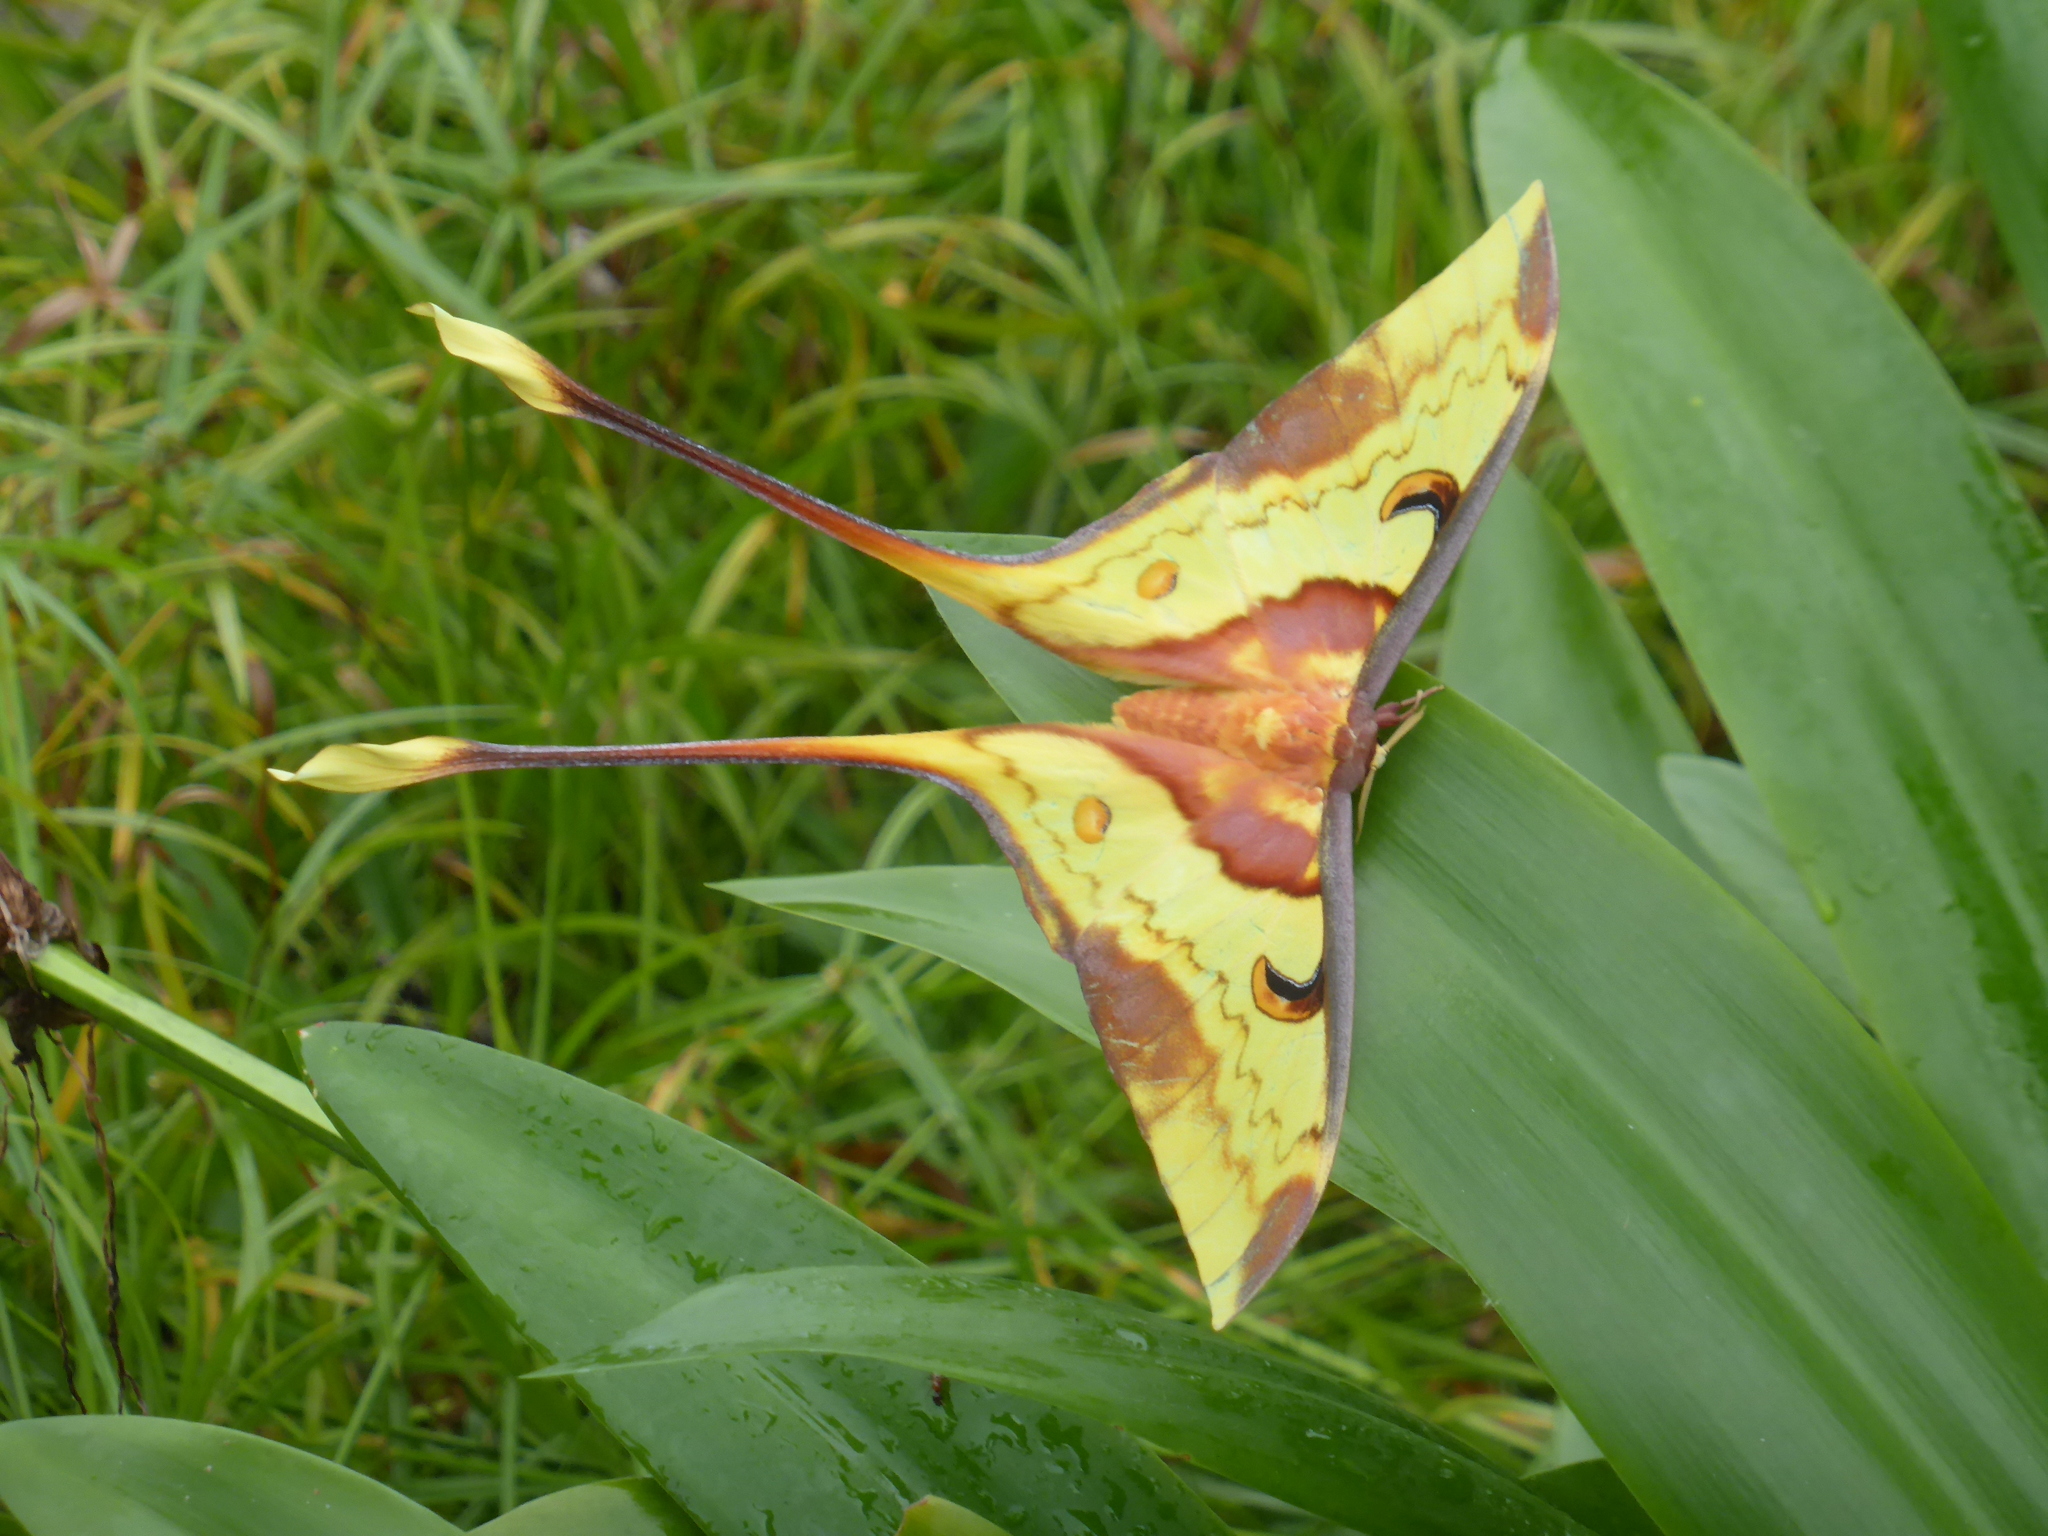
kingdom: Animalia
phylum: Arthropoda
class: Insecta
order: Lepidoptera
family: Saturniidae
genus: Actias
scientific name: Actias maenas
